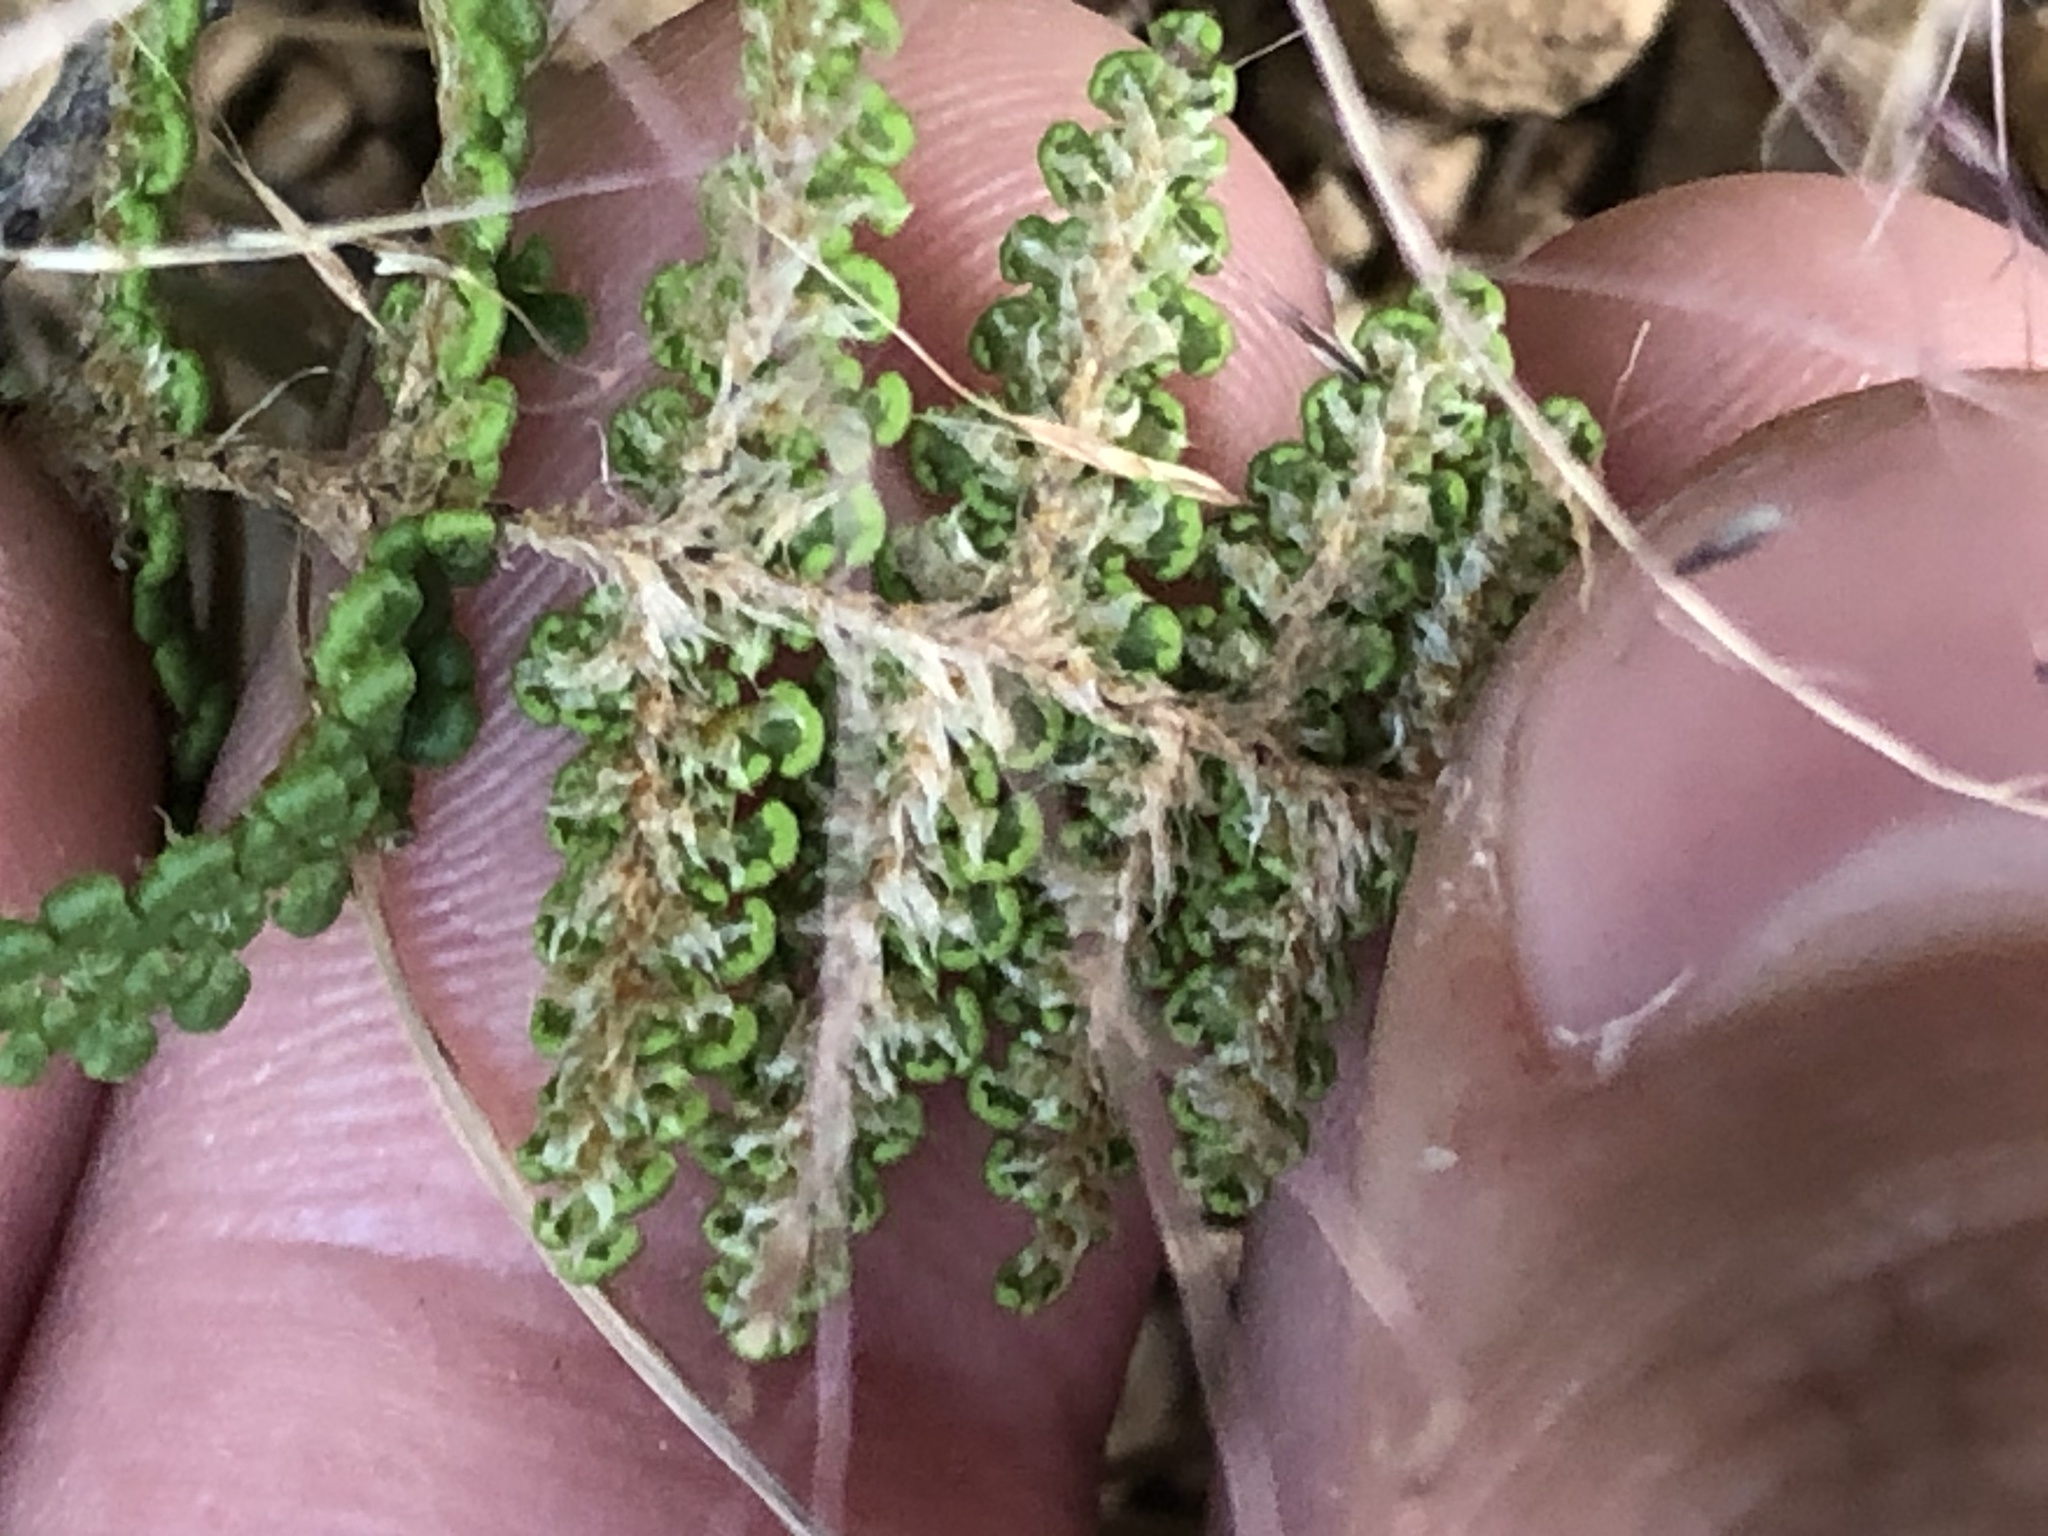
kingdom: Plantae
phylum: Tracheophyta
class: Polypodiopsida
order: Polypodiales
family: Pteridaceae
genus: Myriopteris
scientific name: Myriopteris covillei
